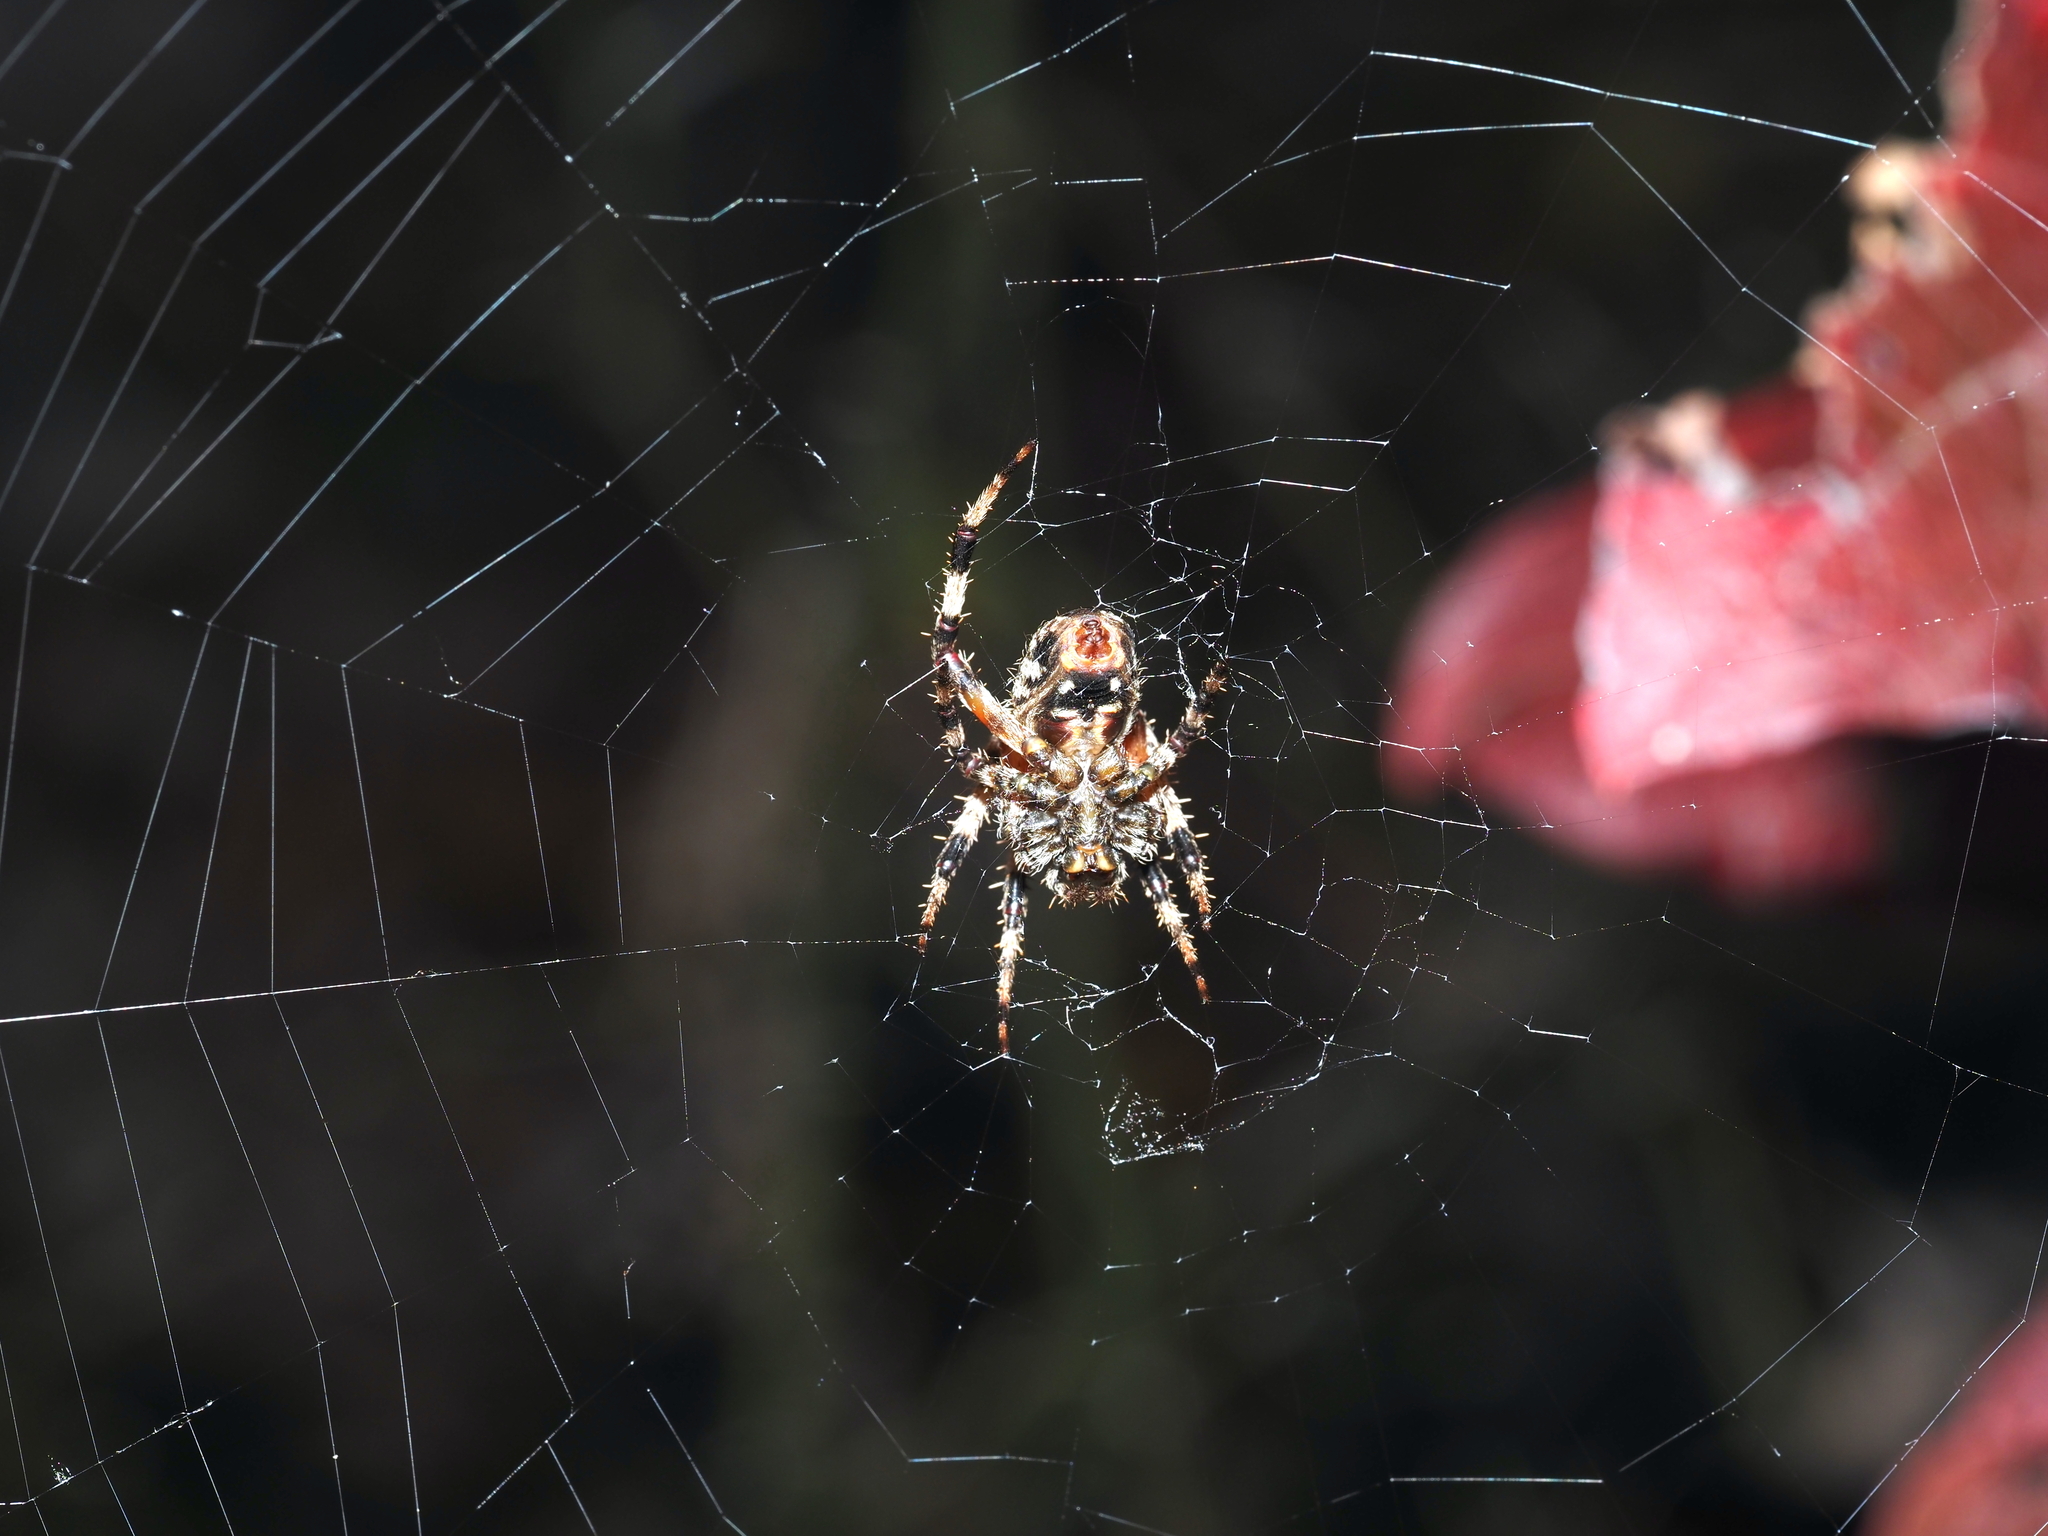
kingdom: Animalia
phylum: Arthropoda
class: Arachnida
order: Araneae
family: Araneidae
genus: Neoscona
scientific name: Neoscona crucifera
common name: Spotted orbweaver
